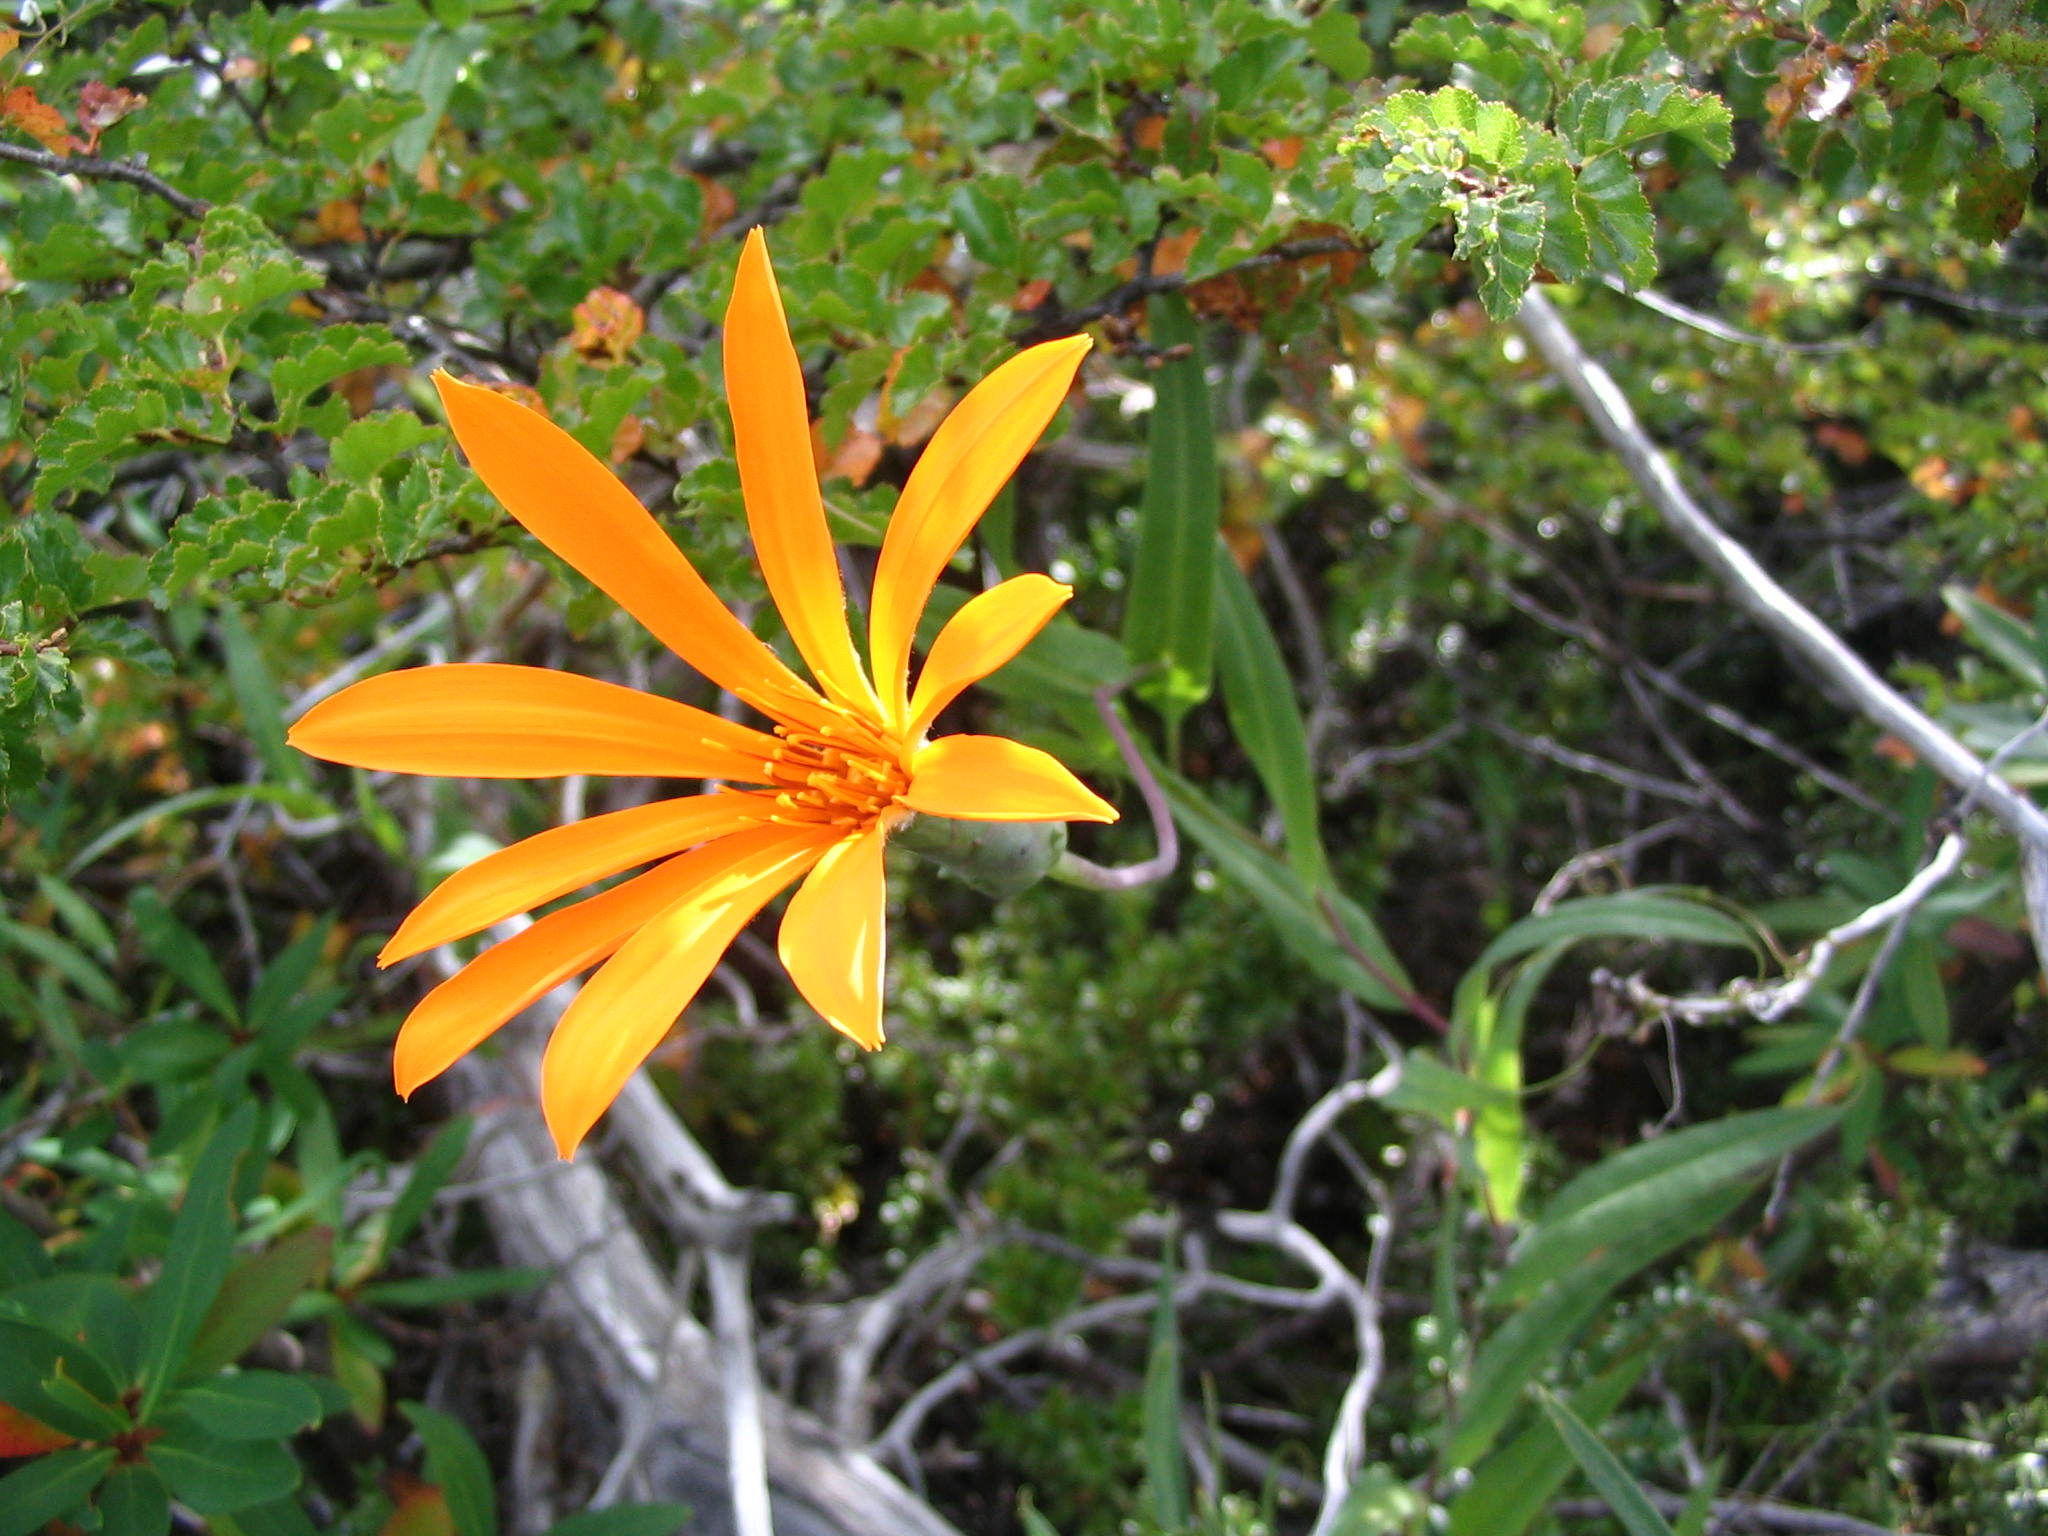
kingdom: Plantae
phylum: Tracheophyta
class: Magnoliopsida
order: Asterales
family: Asteraceae
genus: Mutisia
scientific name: Mutisia decurrens
